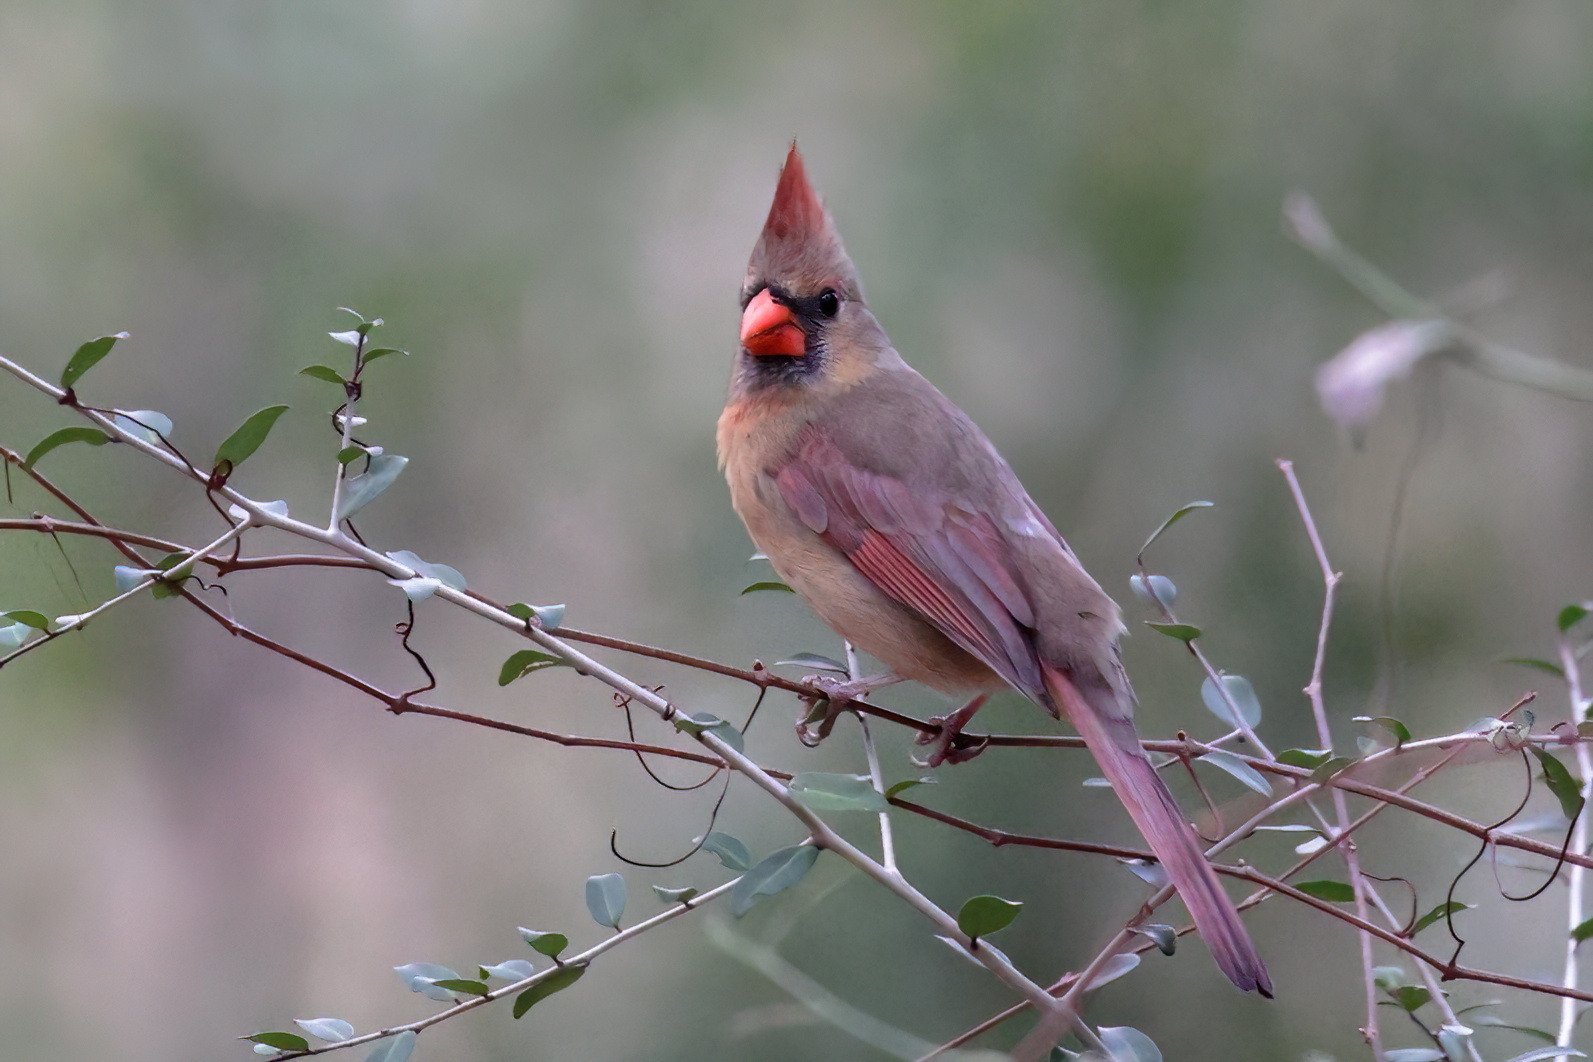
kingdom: Animalia
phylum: Chordata
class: Aves
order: Passeriformes
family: Cardinalidae
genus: Cardinalis
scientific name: Cardinalis cardinalis
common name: Northern cardinal
